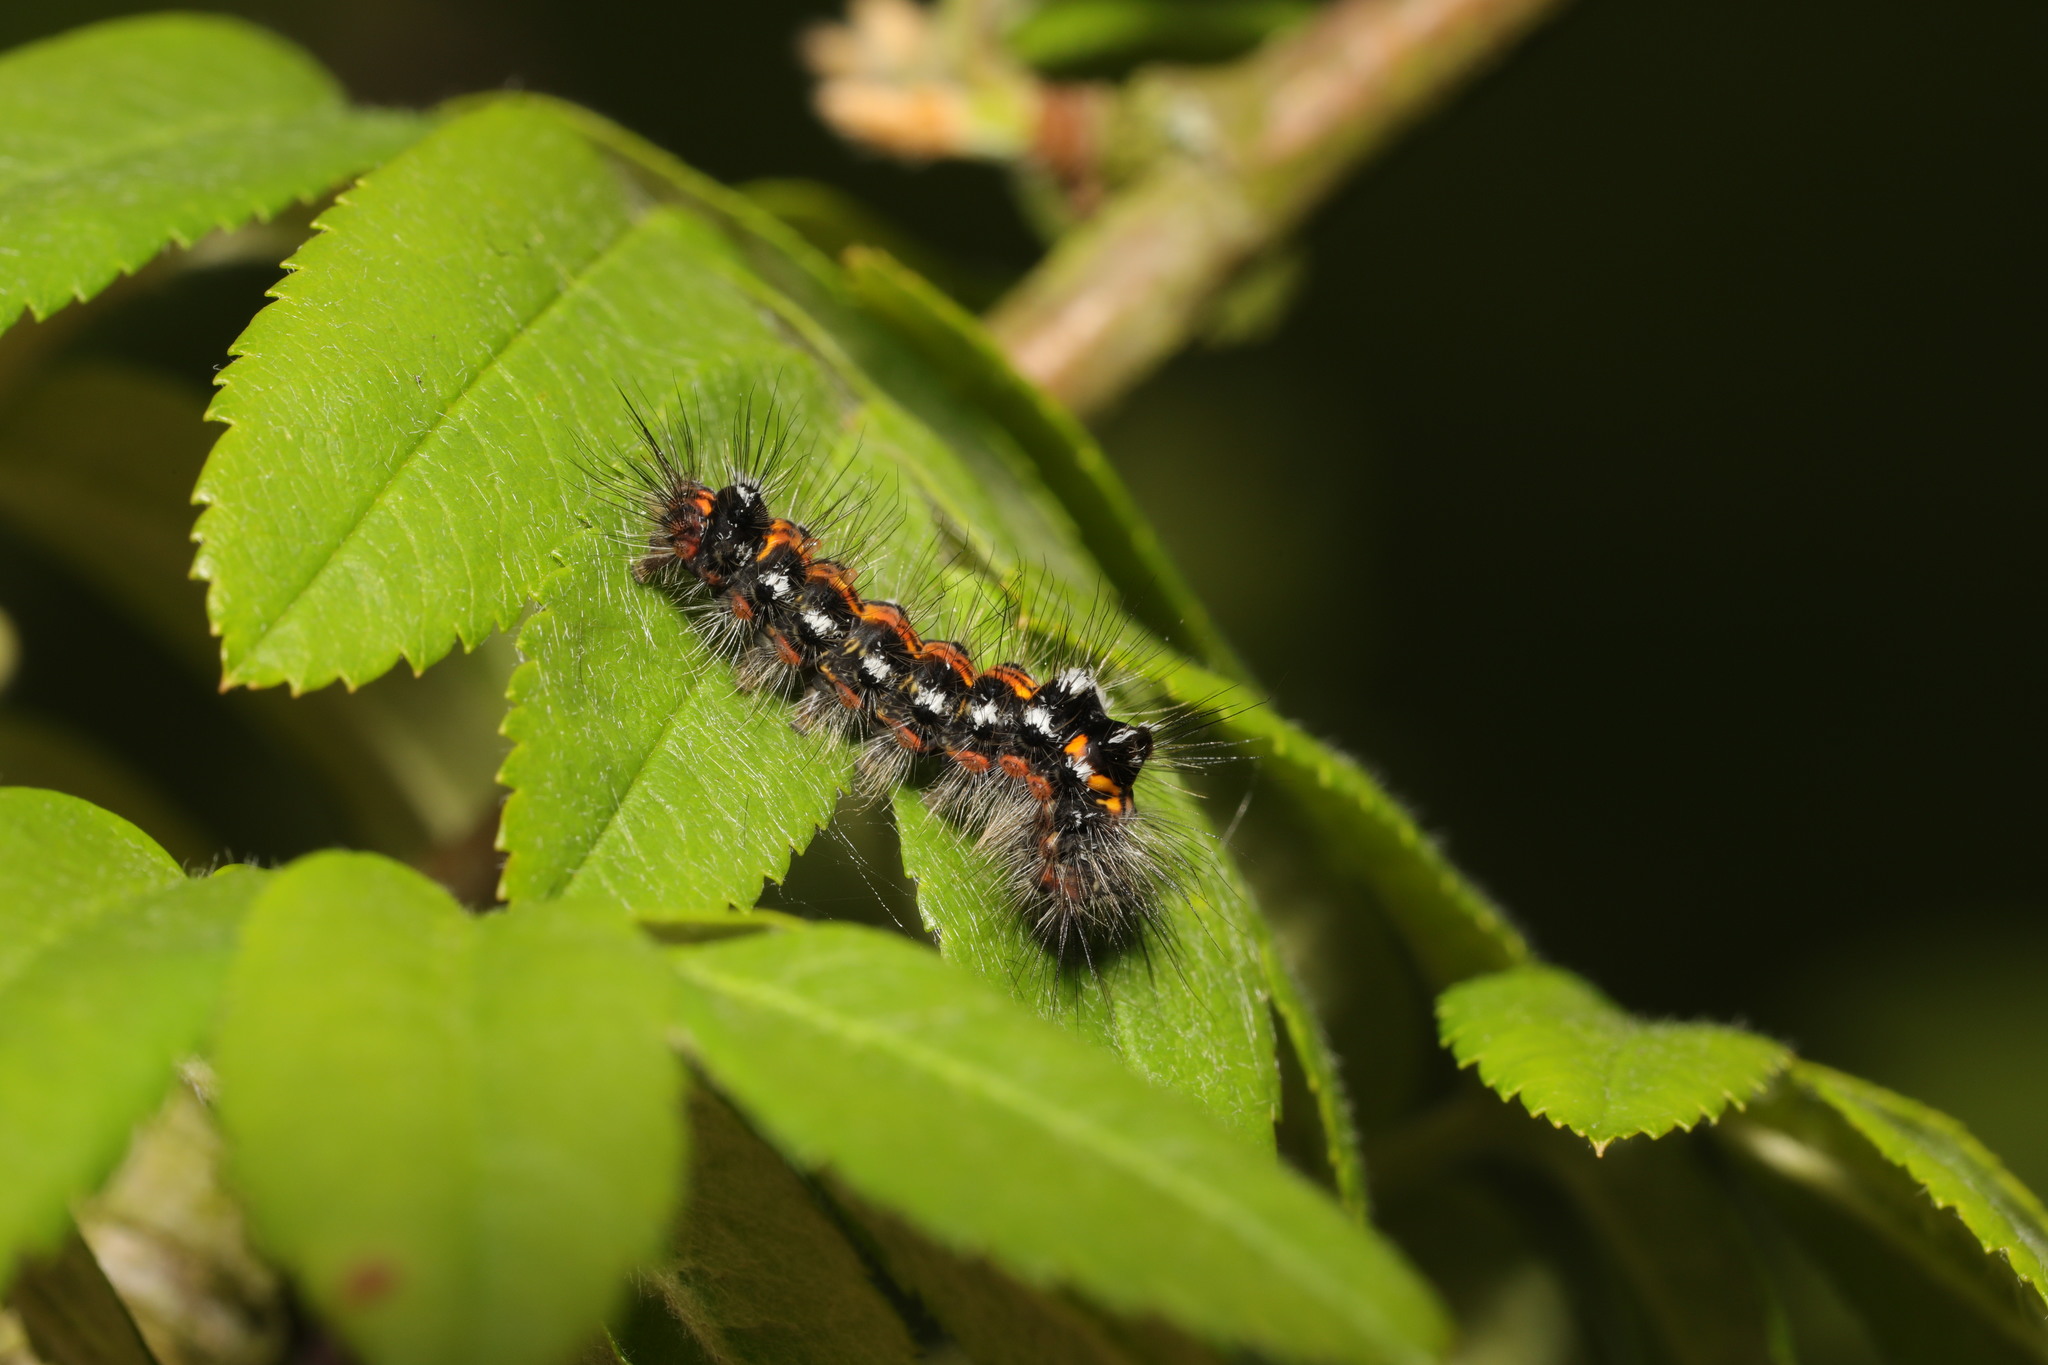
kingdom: Animalia
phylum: Arthropoda
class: Insecta
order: Lepidoptera
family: Erebidae
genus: Sphrageidus
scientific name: Sphrageidus similis
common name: Yellow-tail
